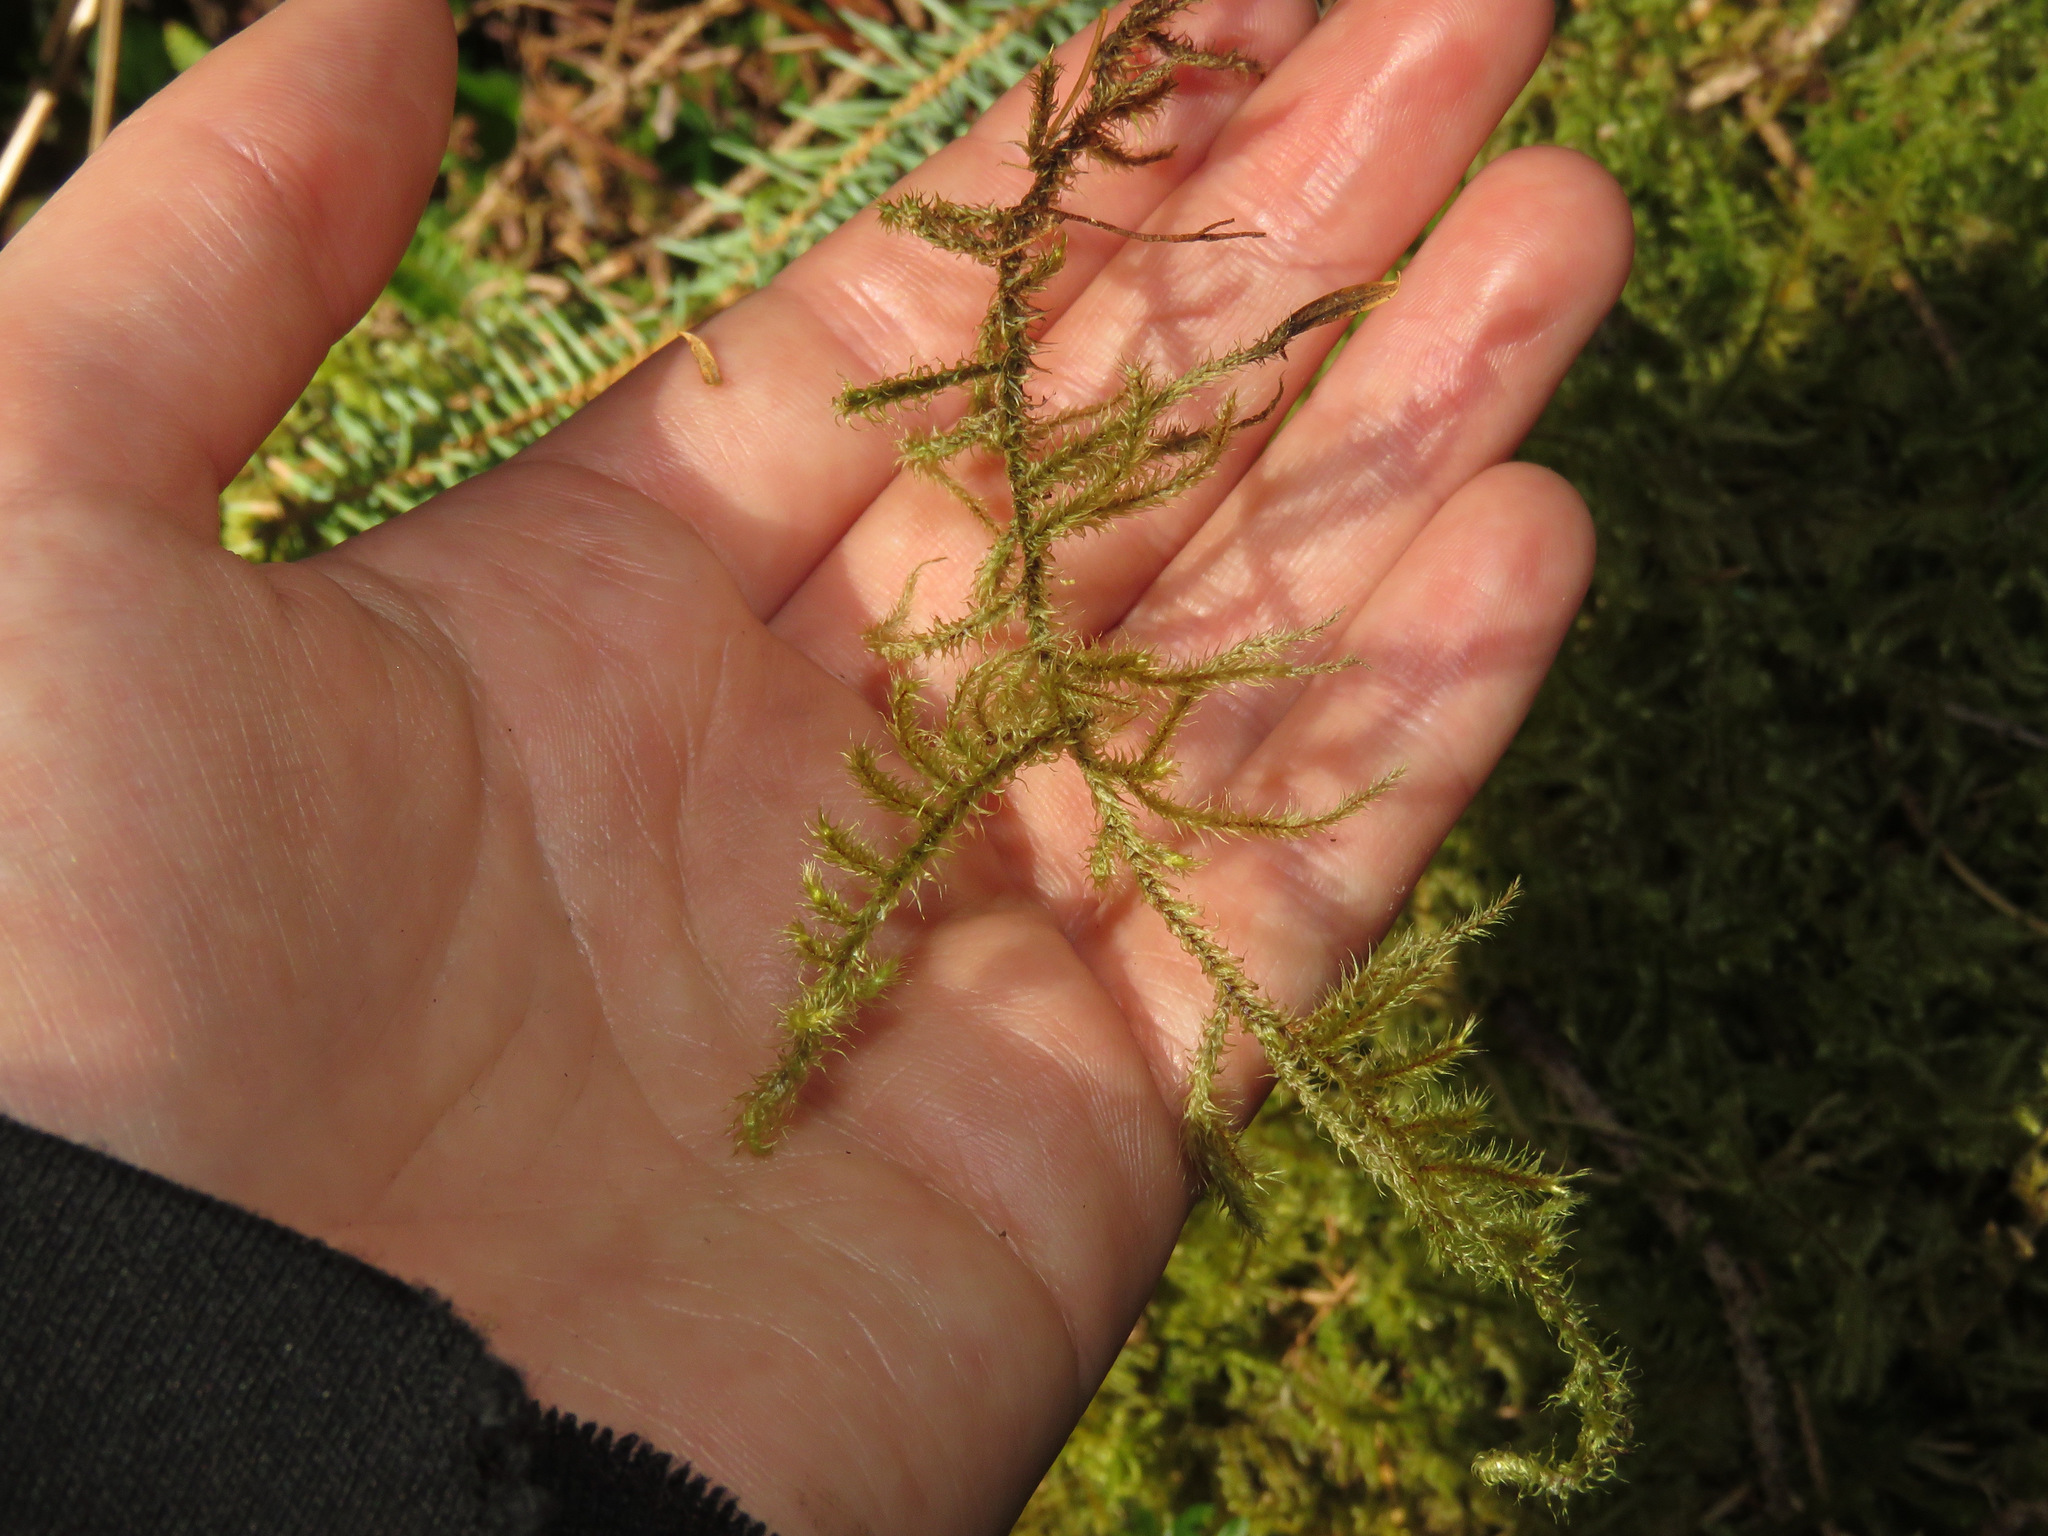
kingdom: Plantae
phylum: Bryophyta
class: Bryopsida
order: Hypnales
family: Hylocomiaceae
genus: Rhytidiadelphus
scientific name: Rhytidiadelphus loreus
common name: Lanky moss
